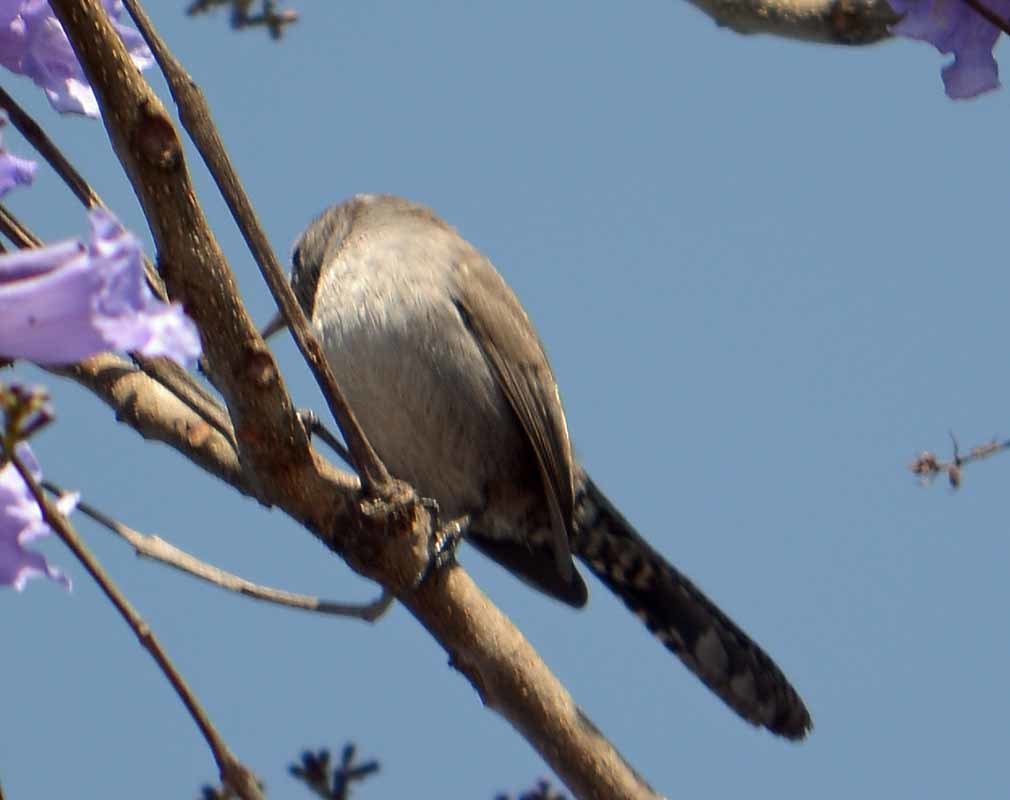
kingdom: Animalia
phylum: Chordata
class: Aves
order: Passeriformes
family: Troglodytidae
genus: Thryomanes
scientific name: Thryomanes bewickii
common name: Bewick's wren
